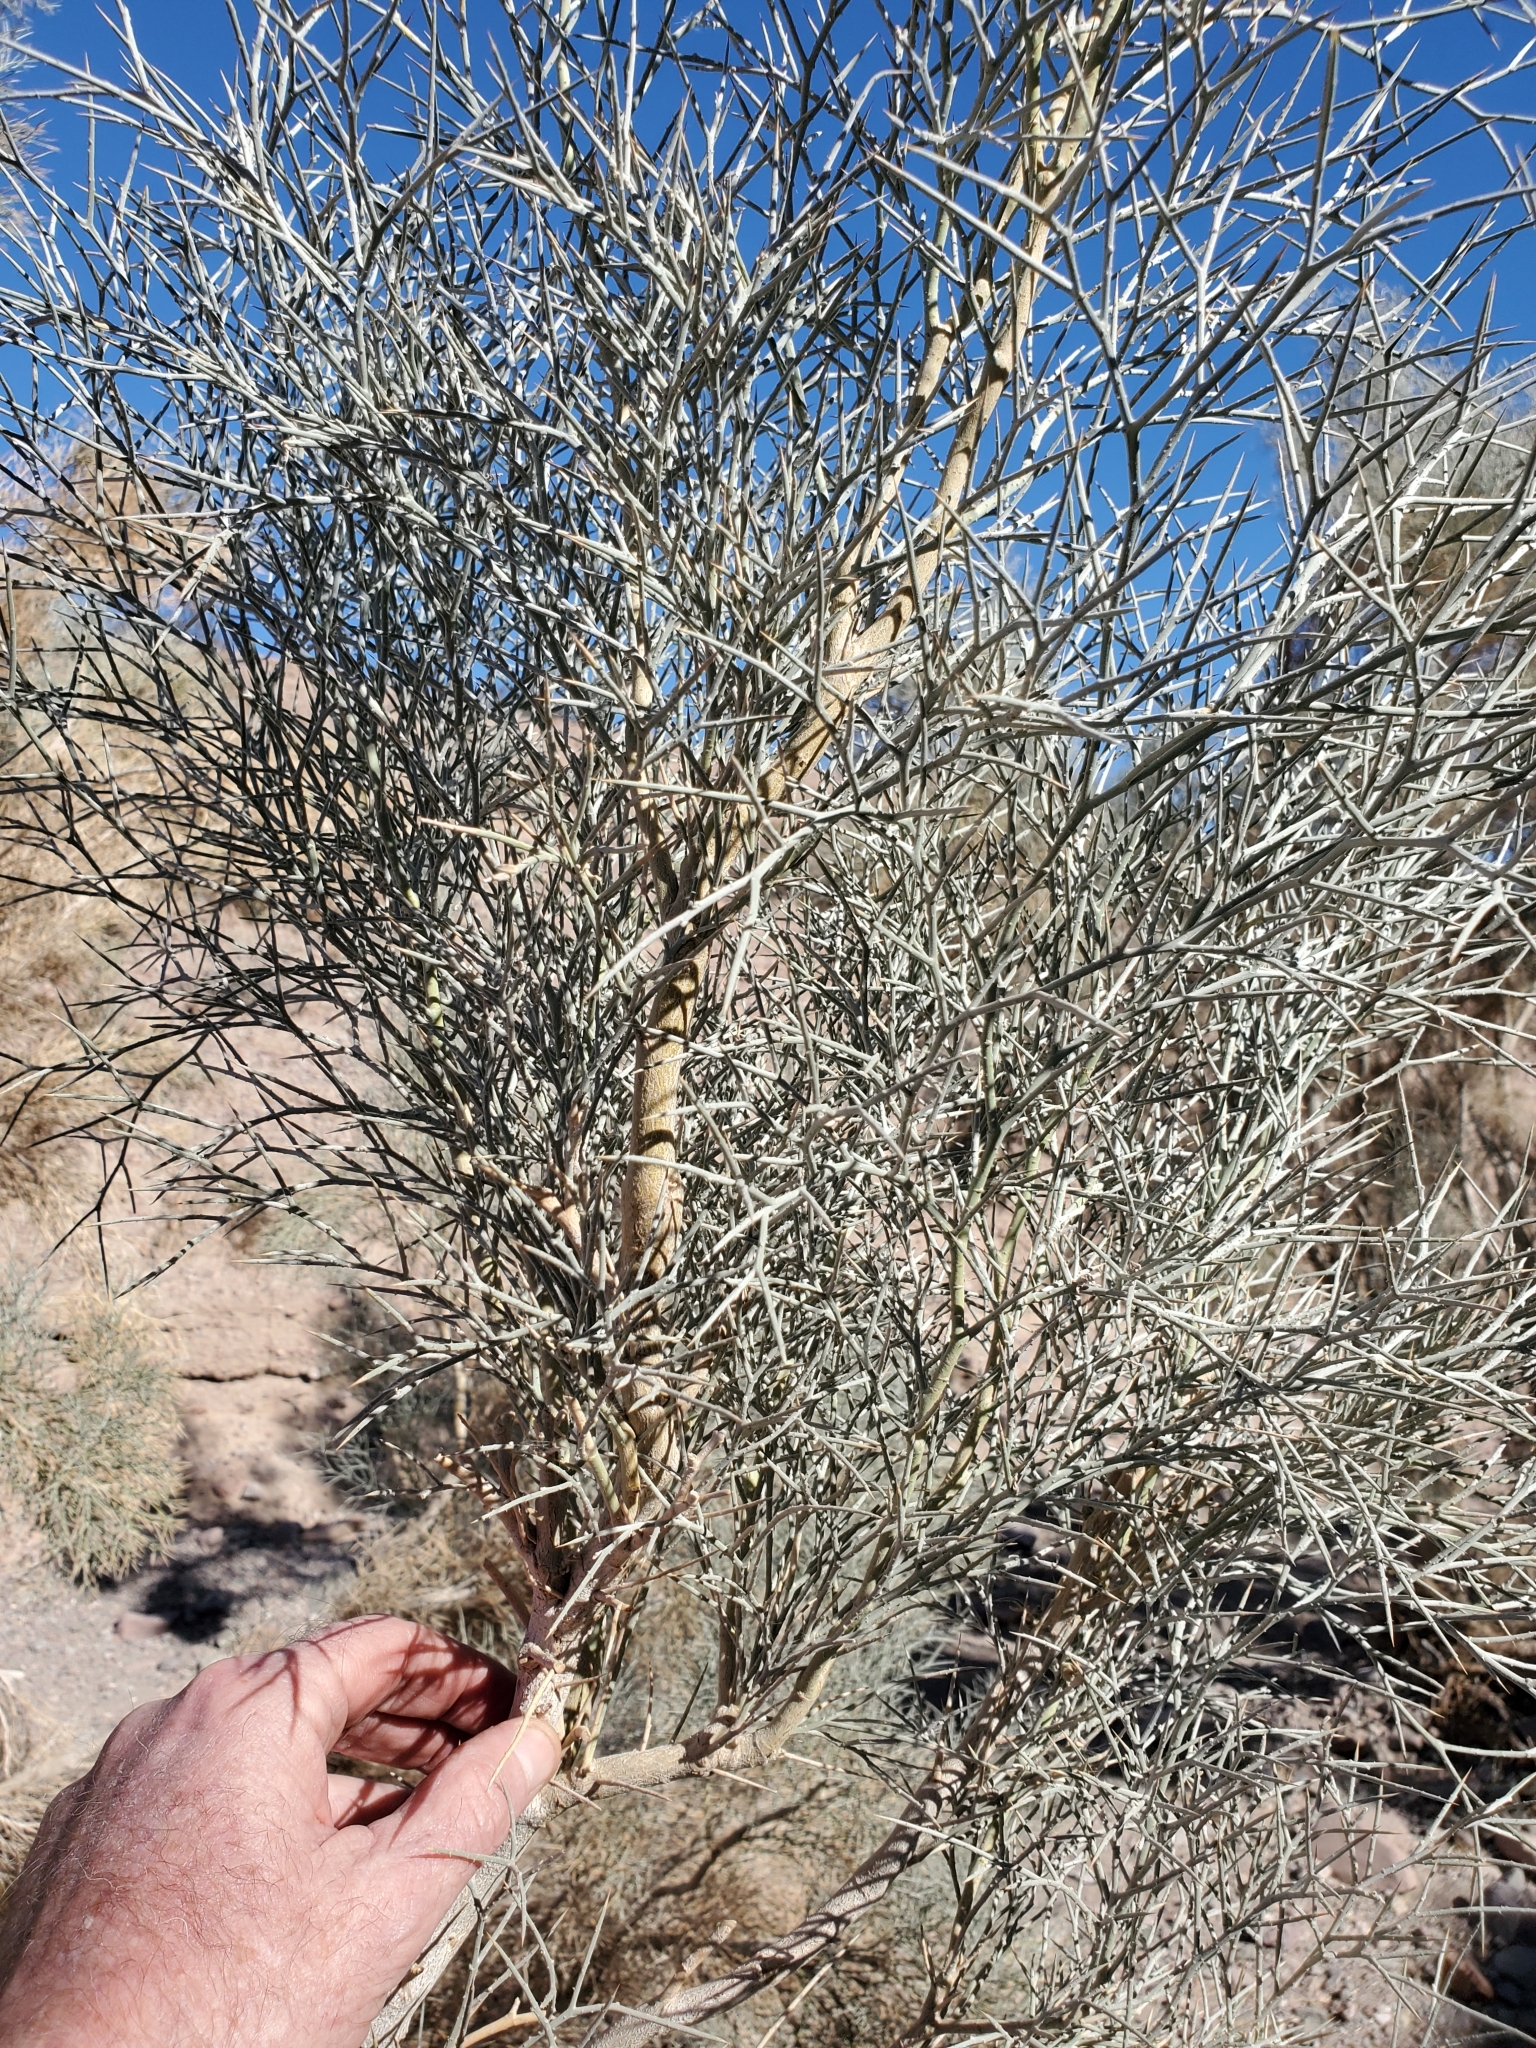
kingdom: Plantae
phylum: Tracheophyta
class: Magnoliopsida
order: Fabales
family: Fabaceae
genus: Psorothamnus
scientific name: Psorothamnus spinosus
